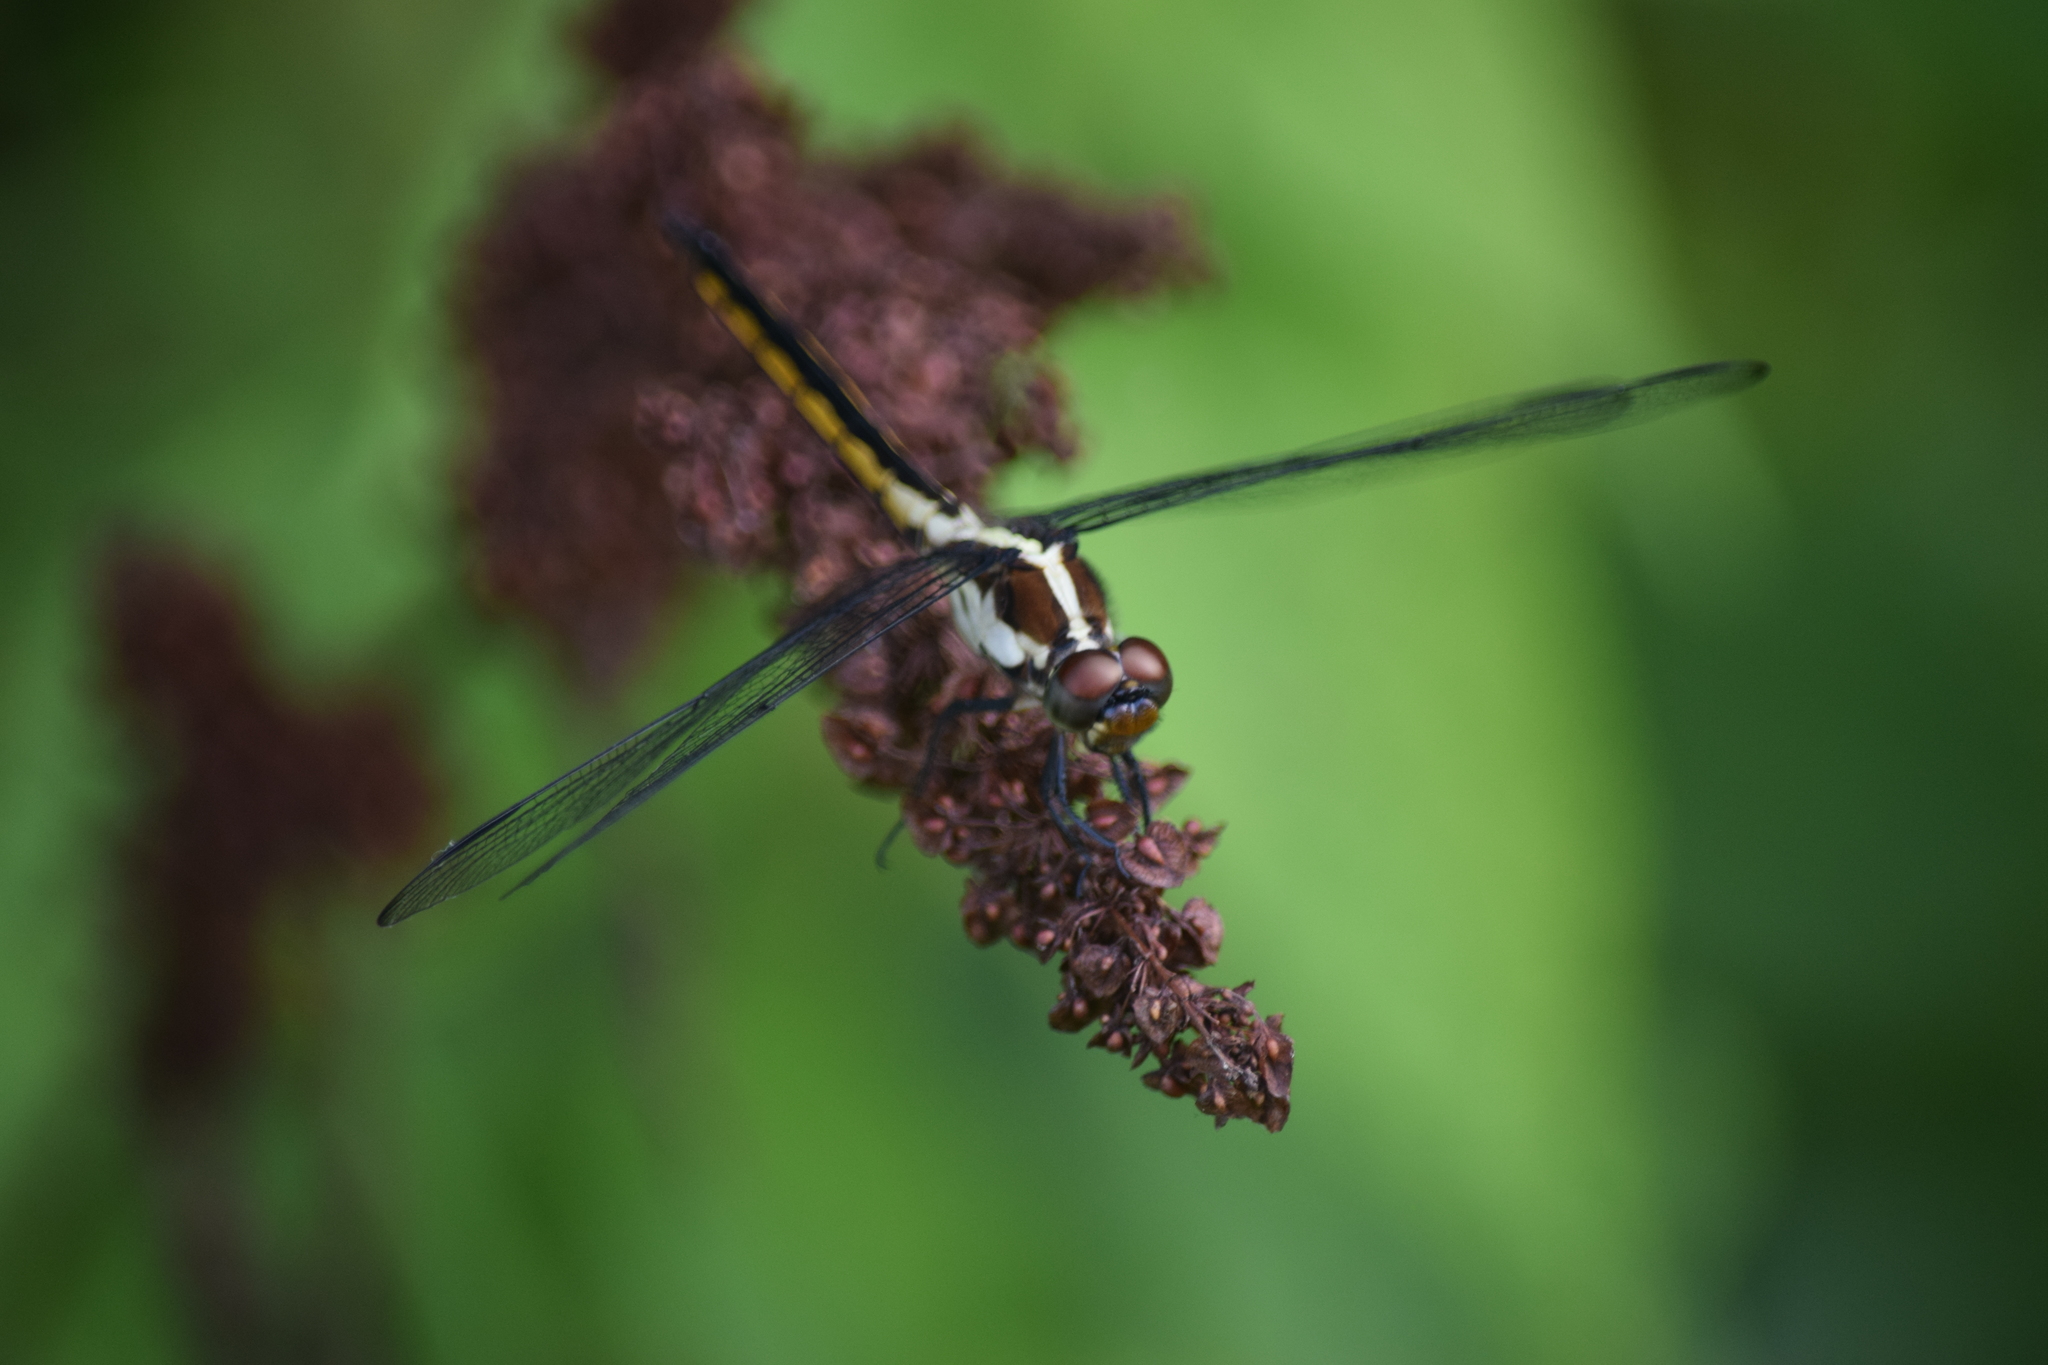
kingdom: Animalia
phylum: Arthropoda
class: Insecta
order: Odonata
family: Libellulidae
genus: Libellula
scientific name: Libellula incesta
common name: Slaty skimmer
